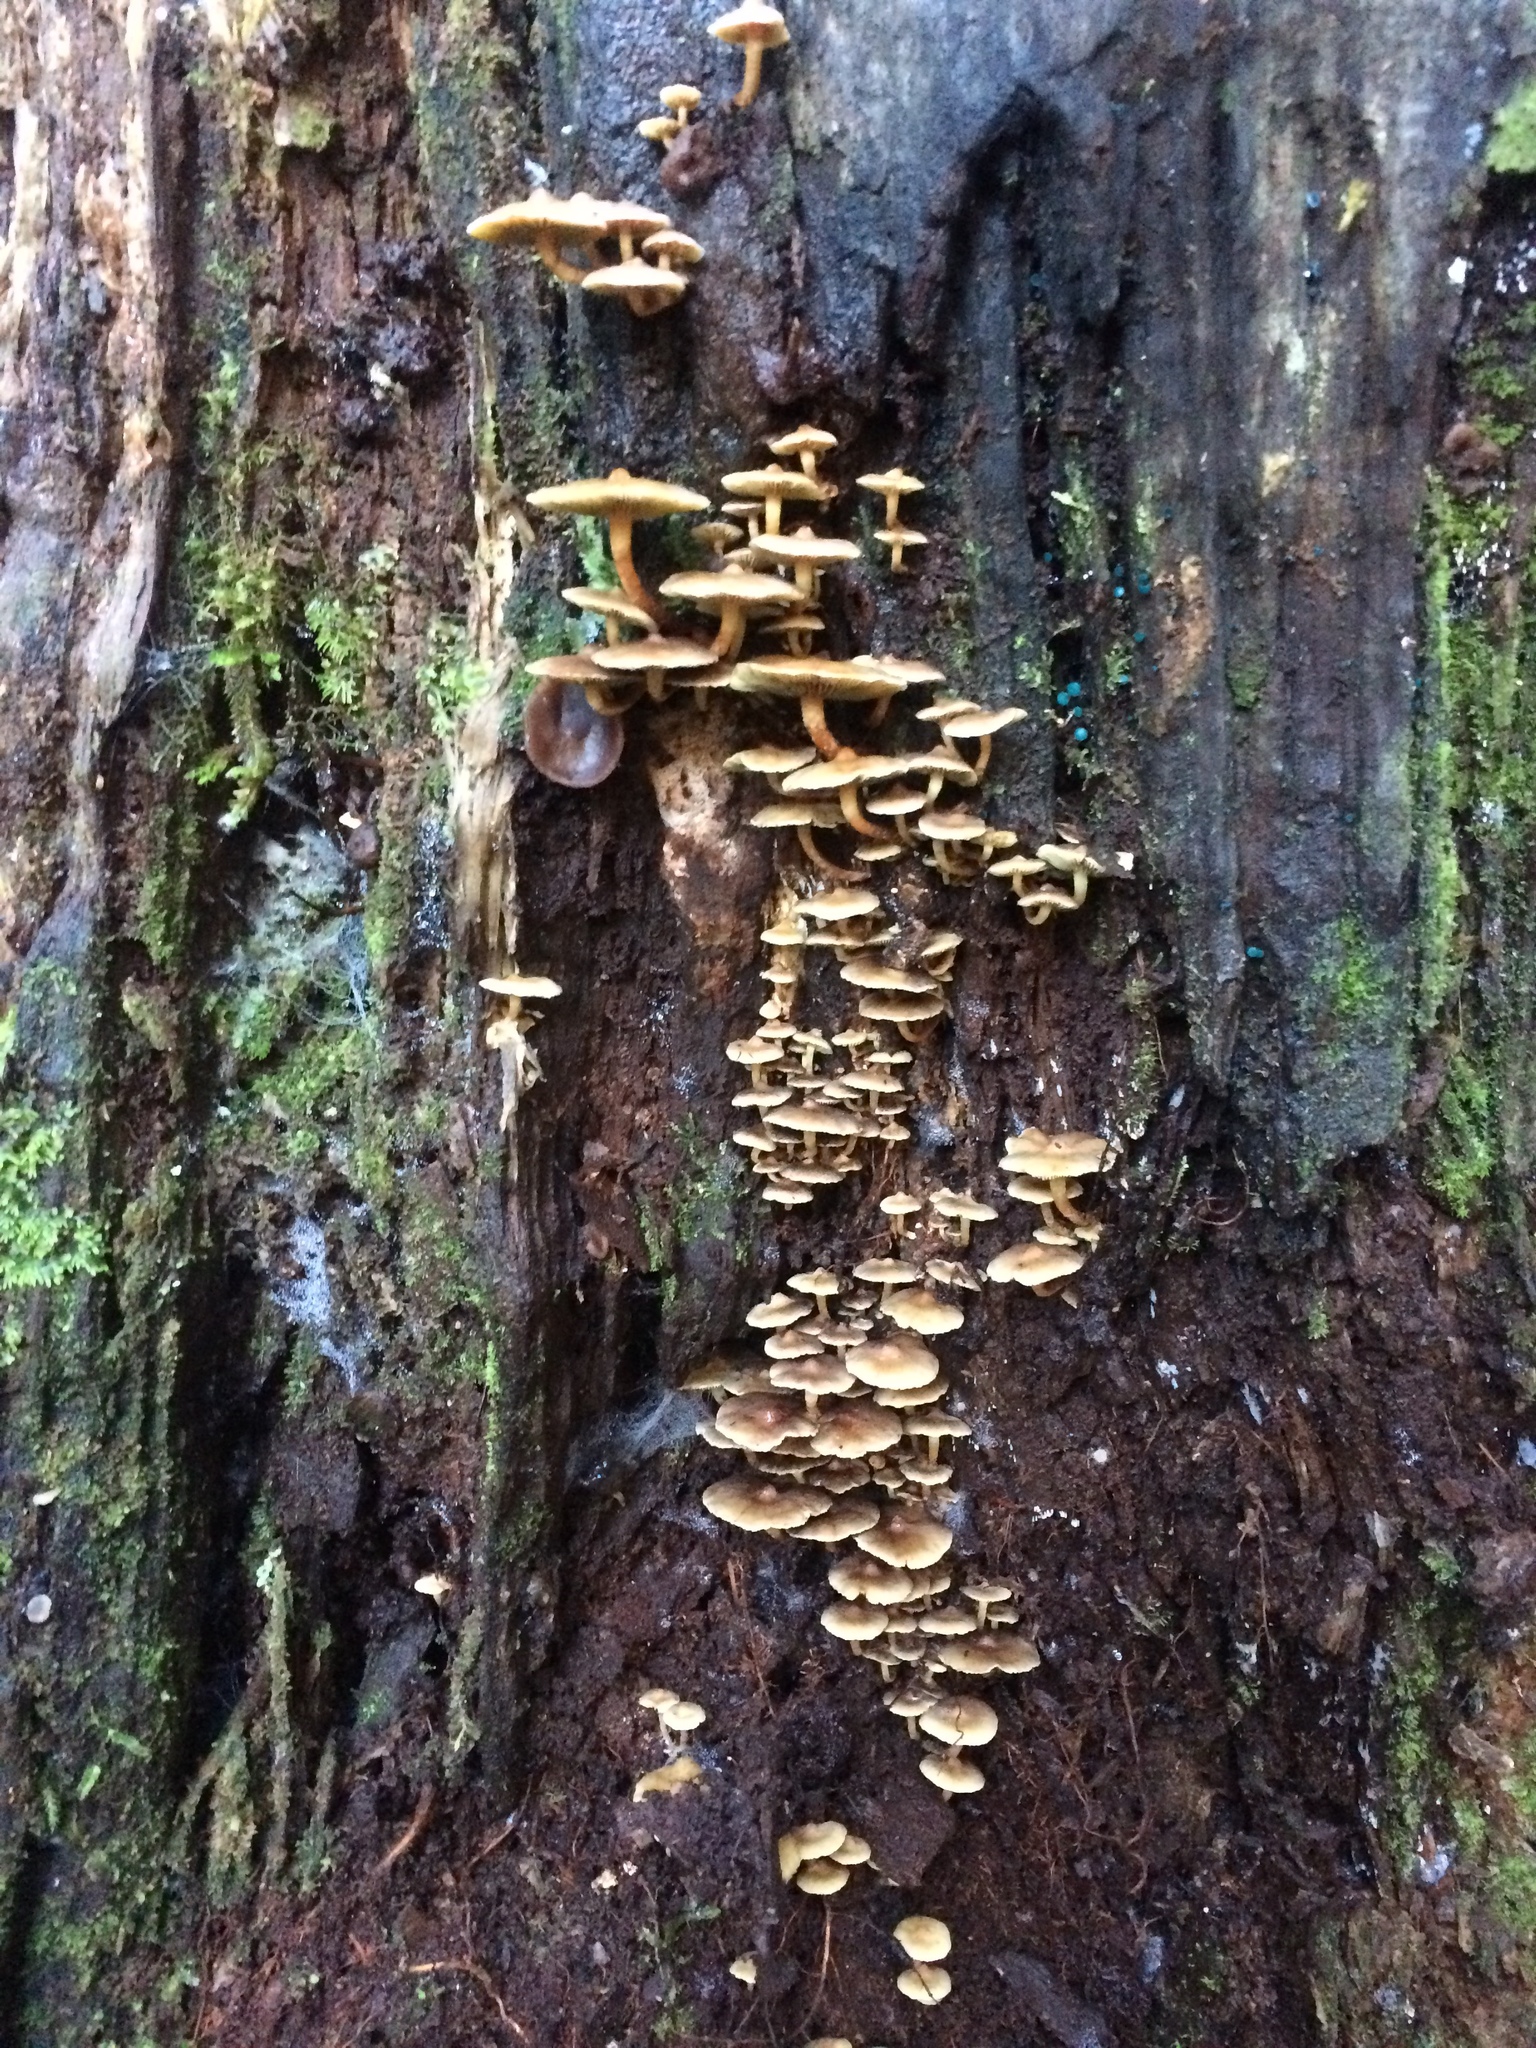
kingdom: Fungi
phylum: Basidiomycota
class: Agaricomycetes
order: Agaricales
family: Strophariaceae
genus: Hypholoma
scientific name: Hypholoma acutum
